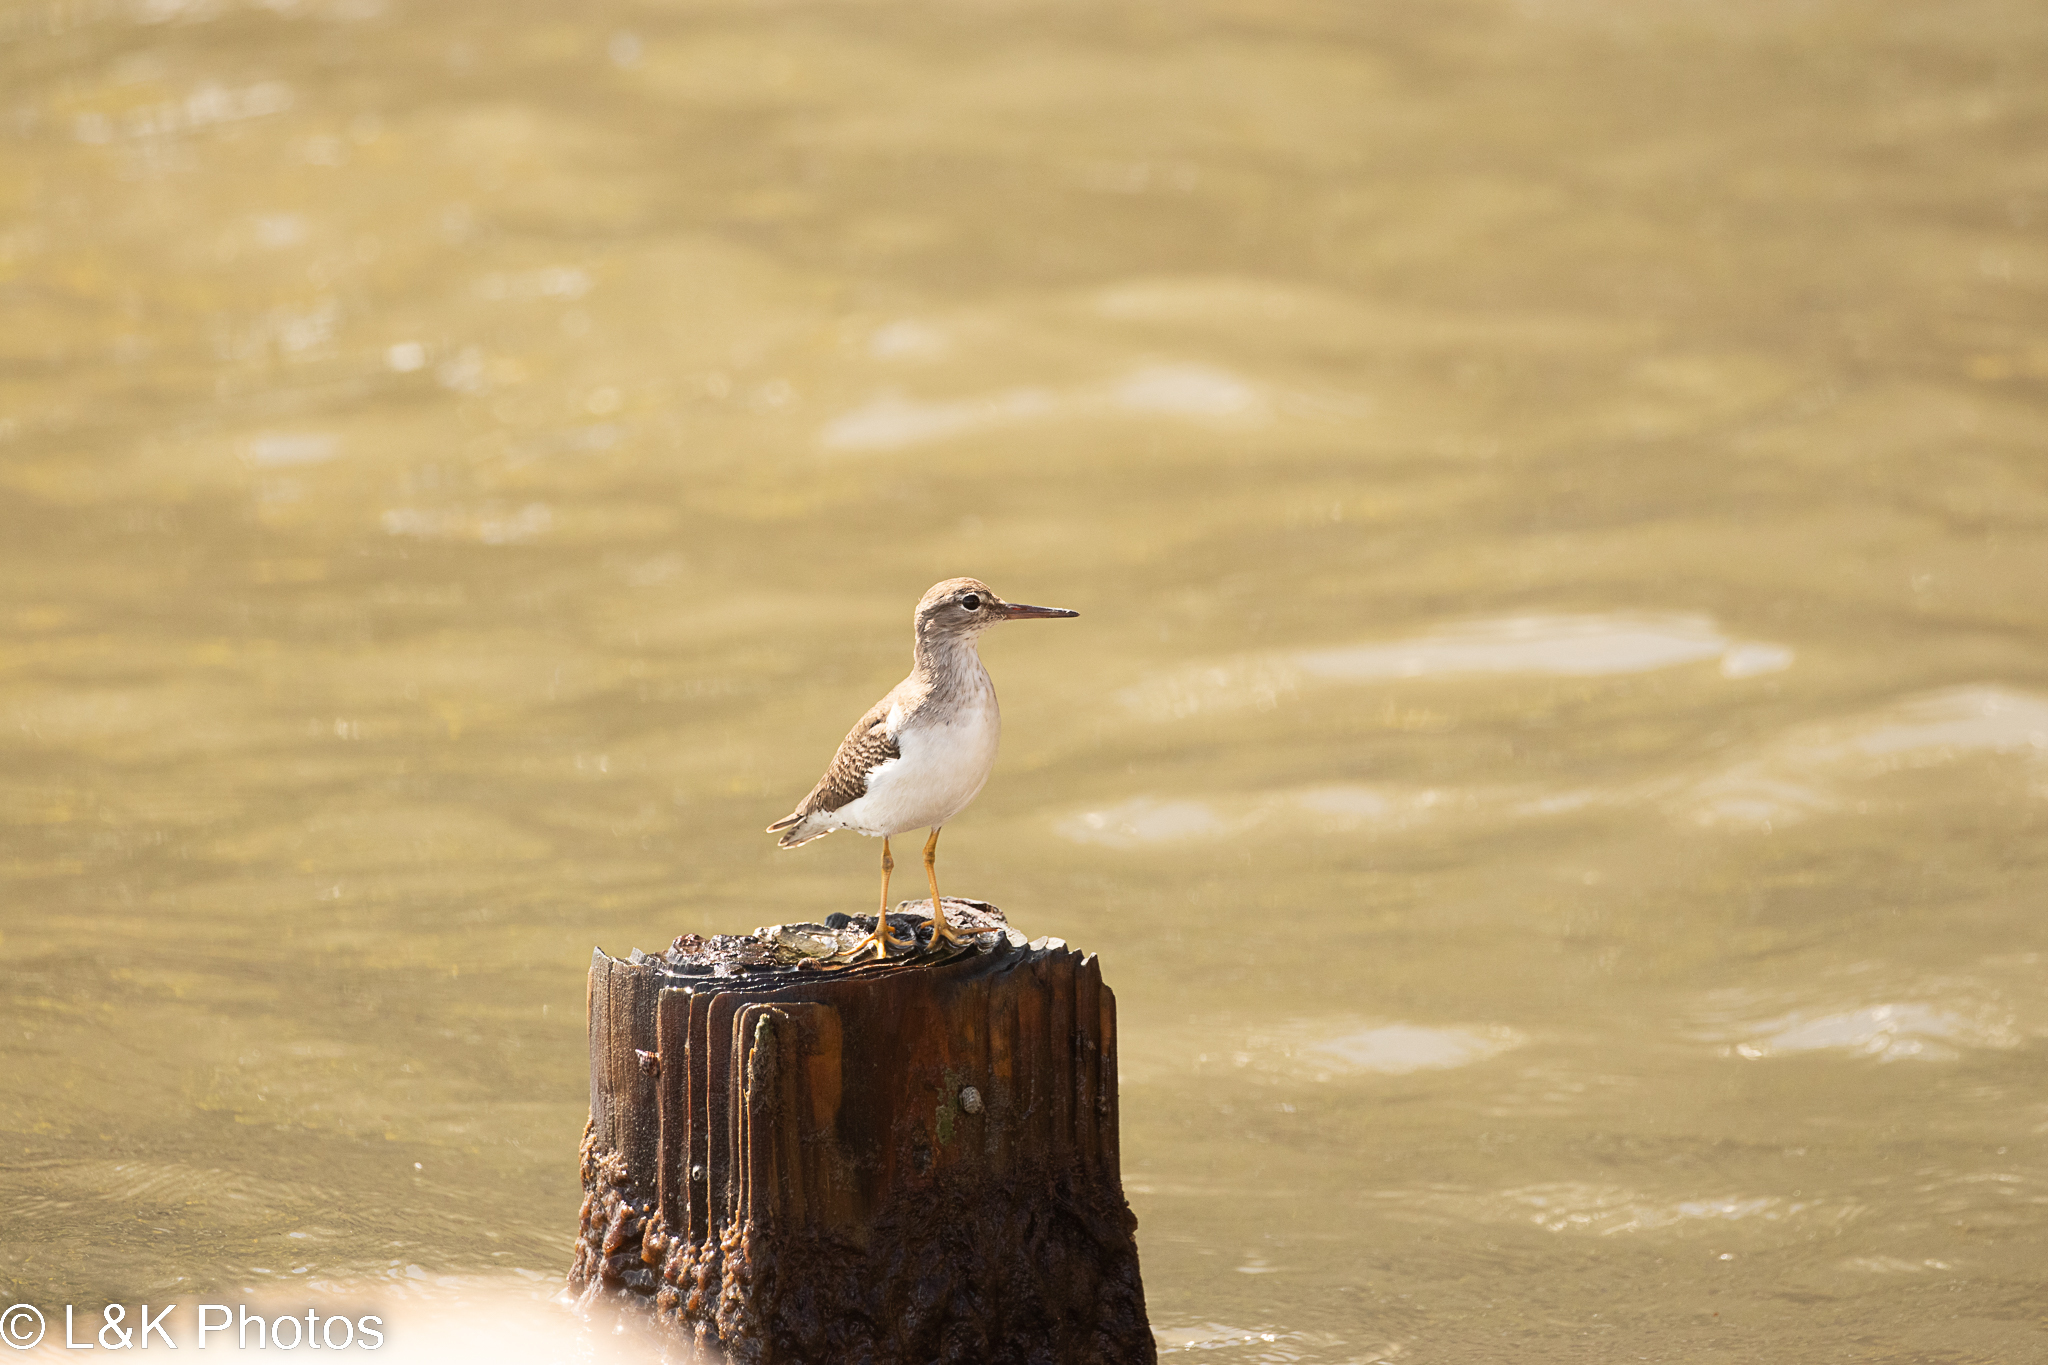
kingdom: Animalia
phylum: Chordata
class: Aves
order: Charadriiformes
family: Scolopacidae
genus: Actitis
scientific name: Actitis macularius
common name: Spotted sandpiper
